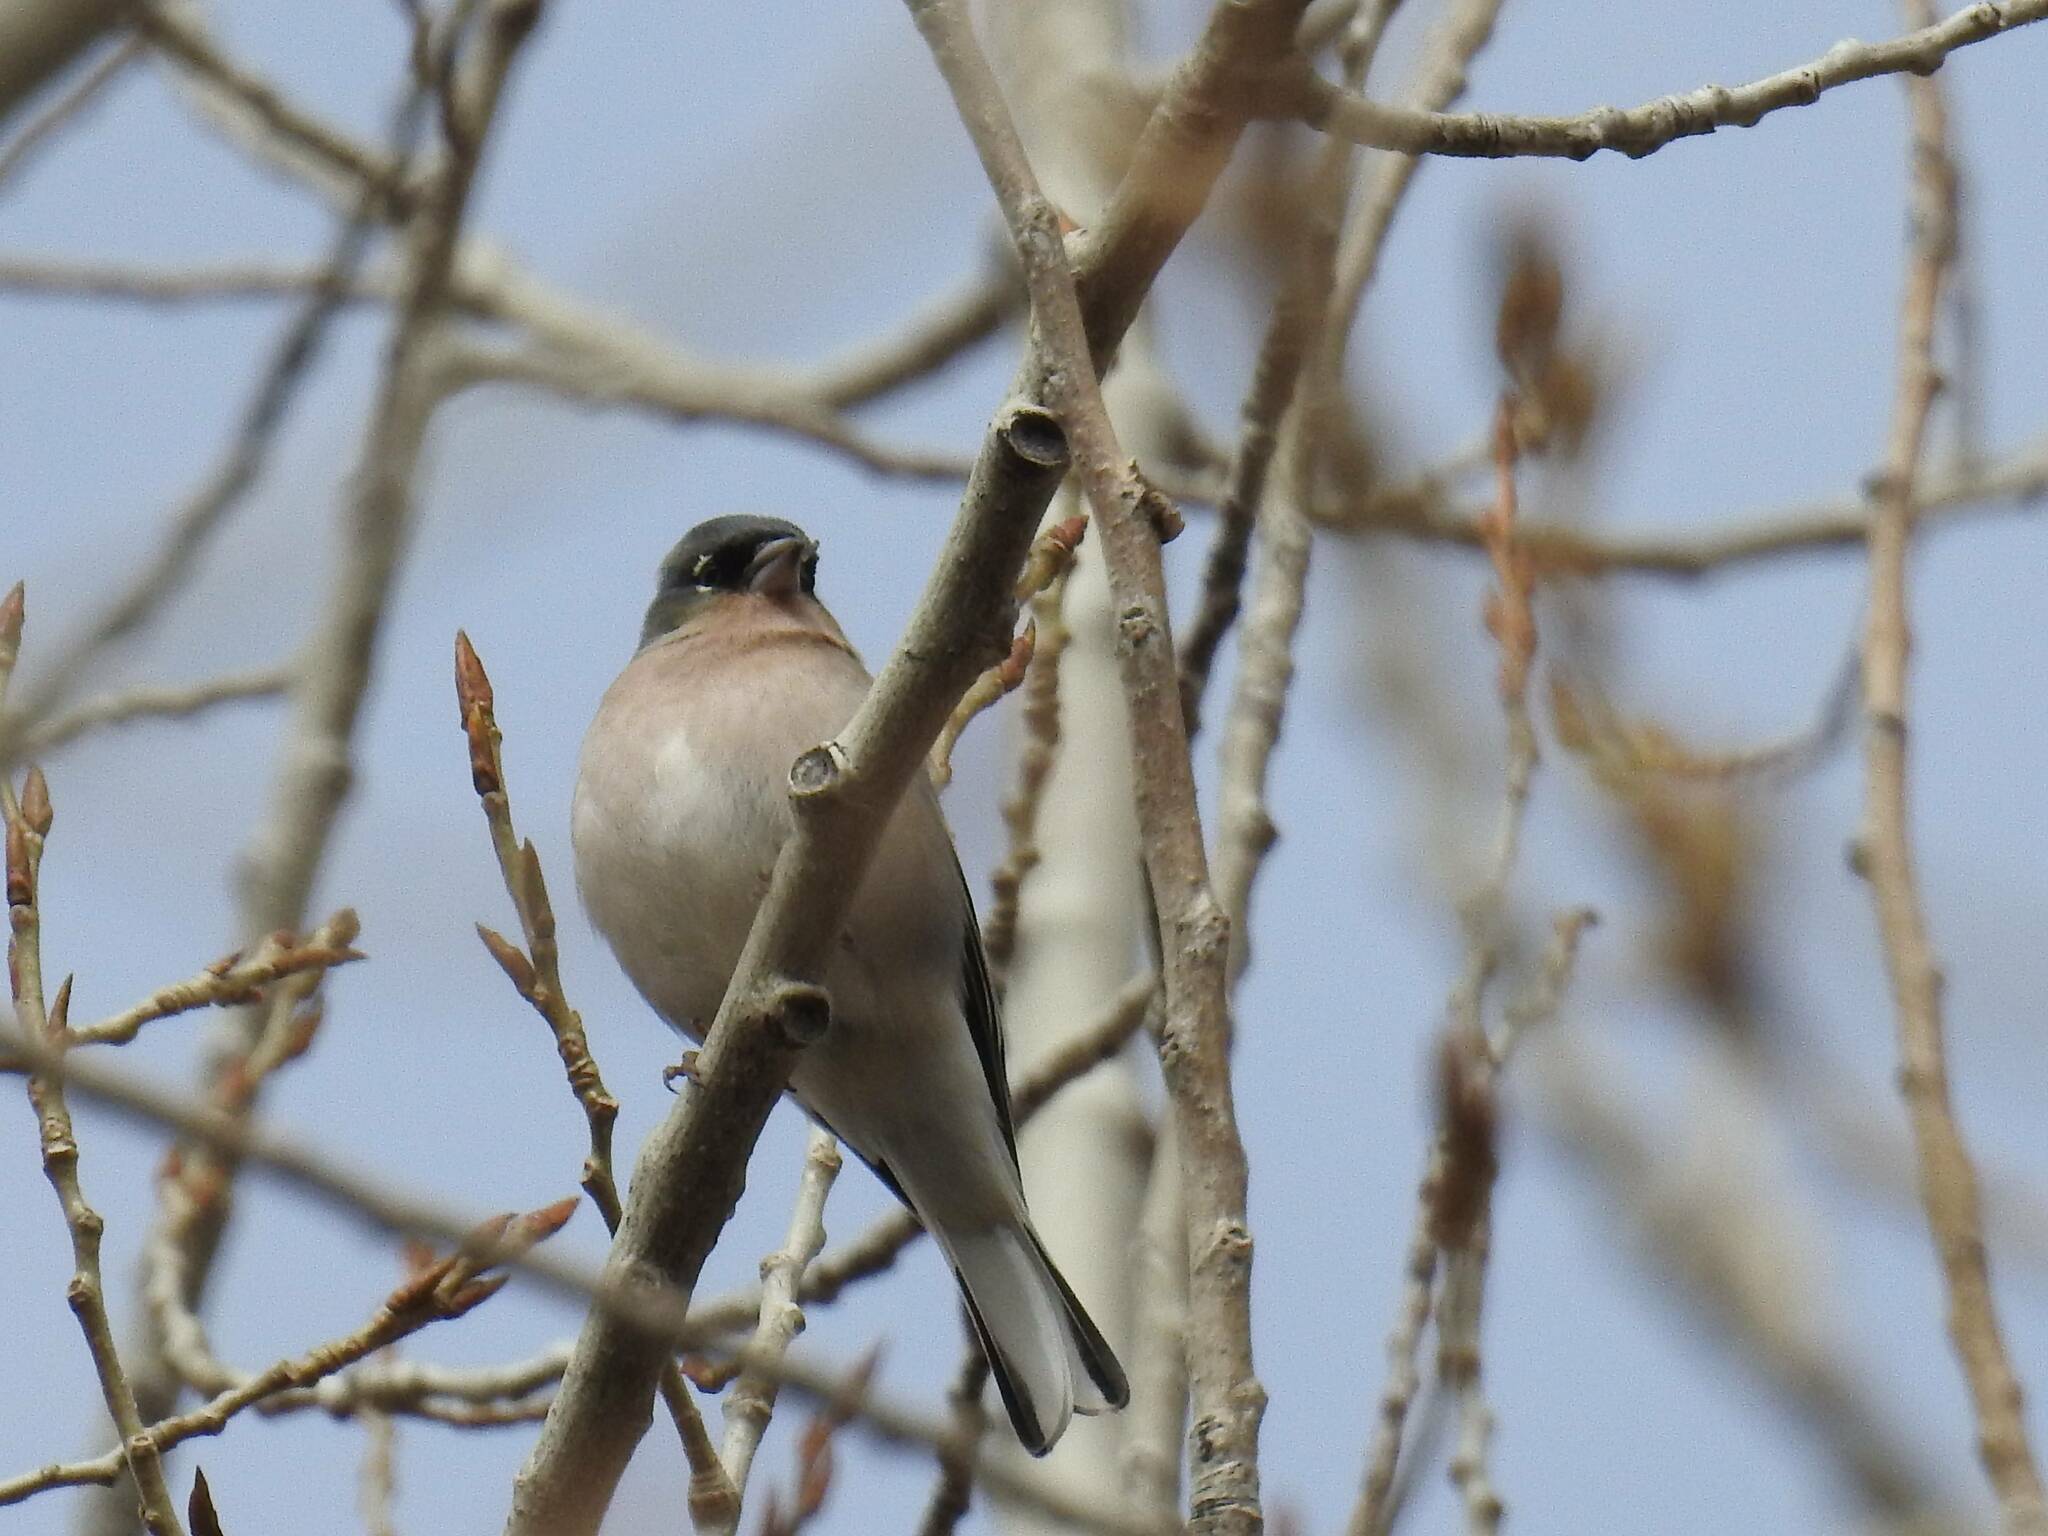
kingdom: Animalia
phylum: Chordata
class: Aves
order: Passeriformes
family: Fringillidae
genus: Fringilla
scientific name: Fringilla spodiogenys
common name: African chaffinch
